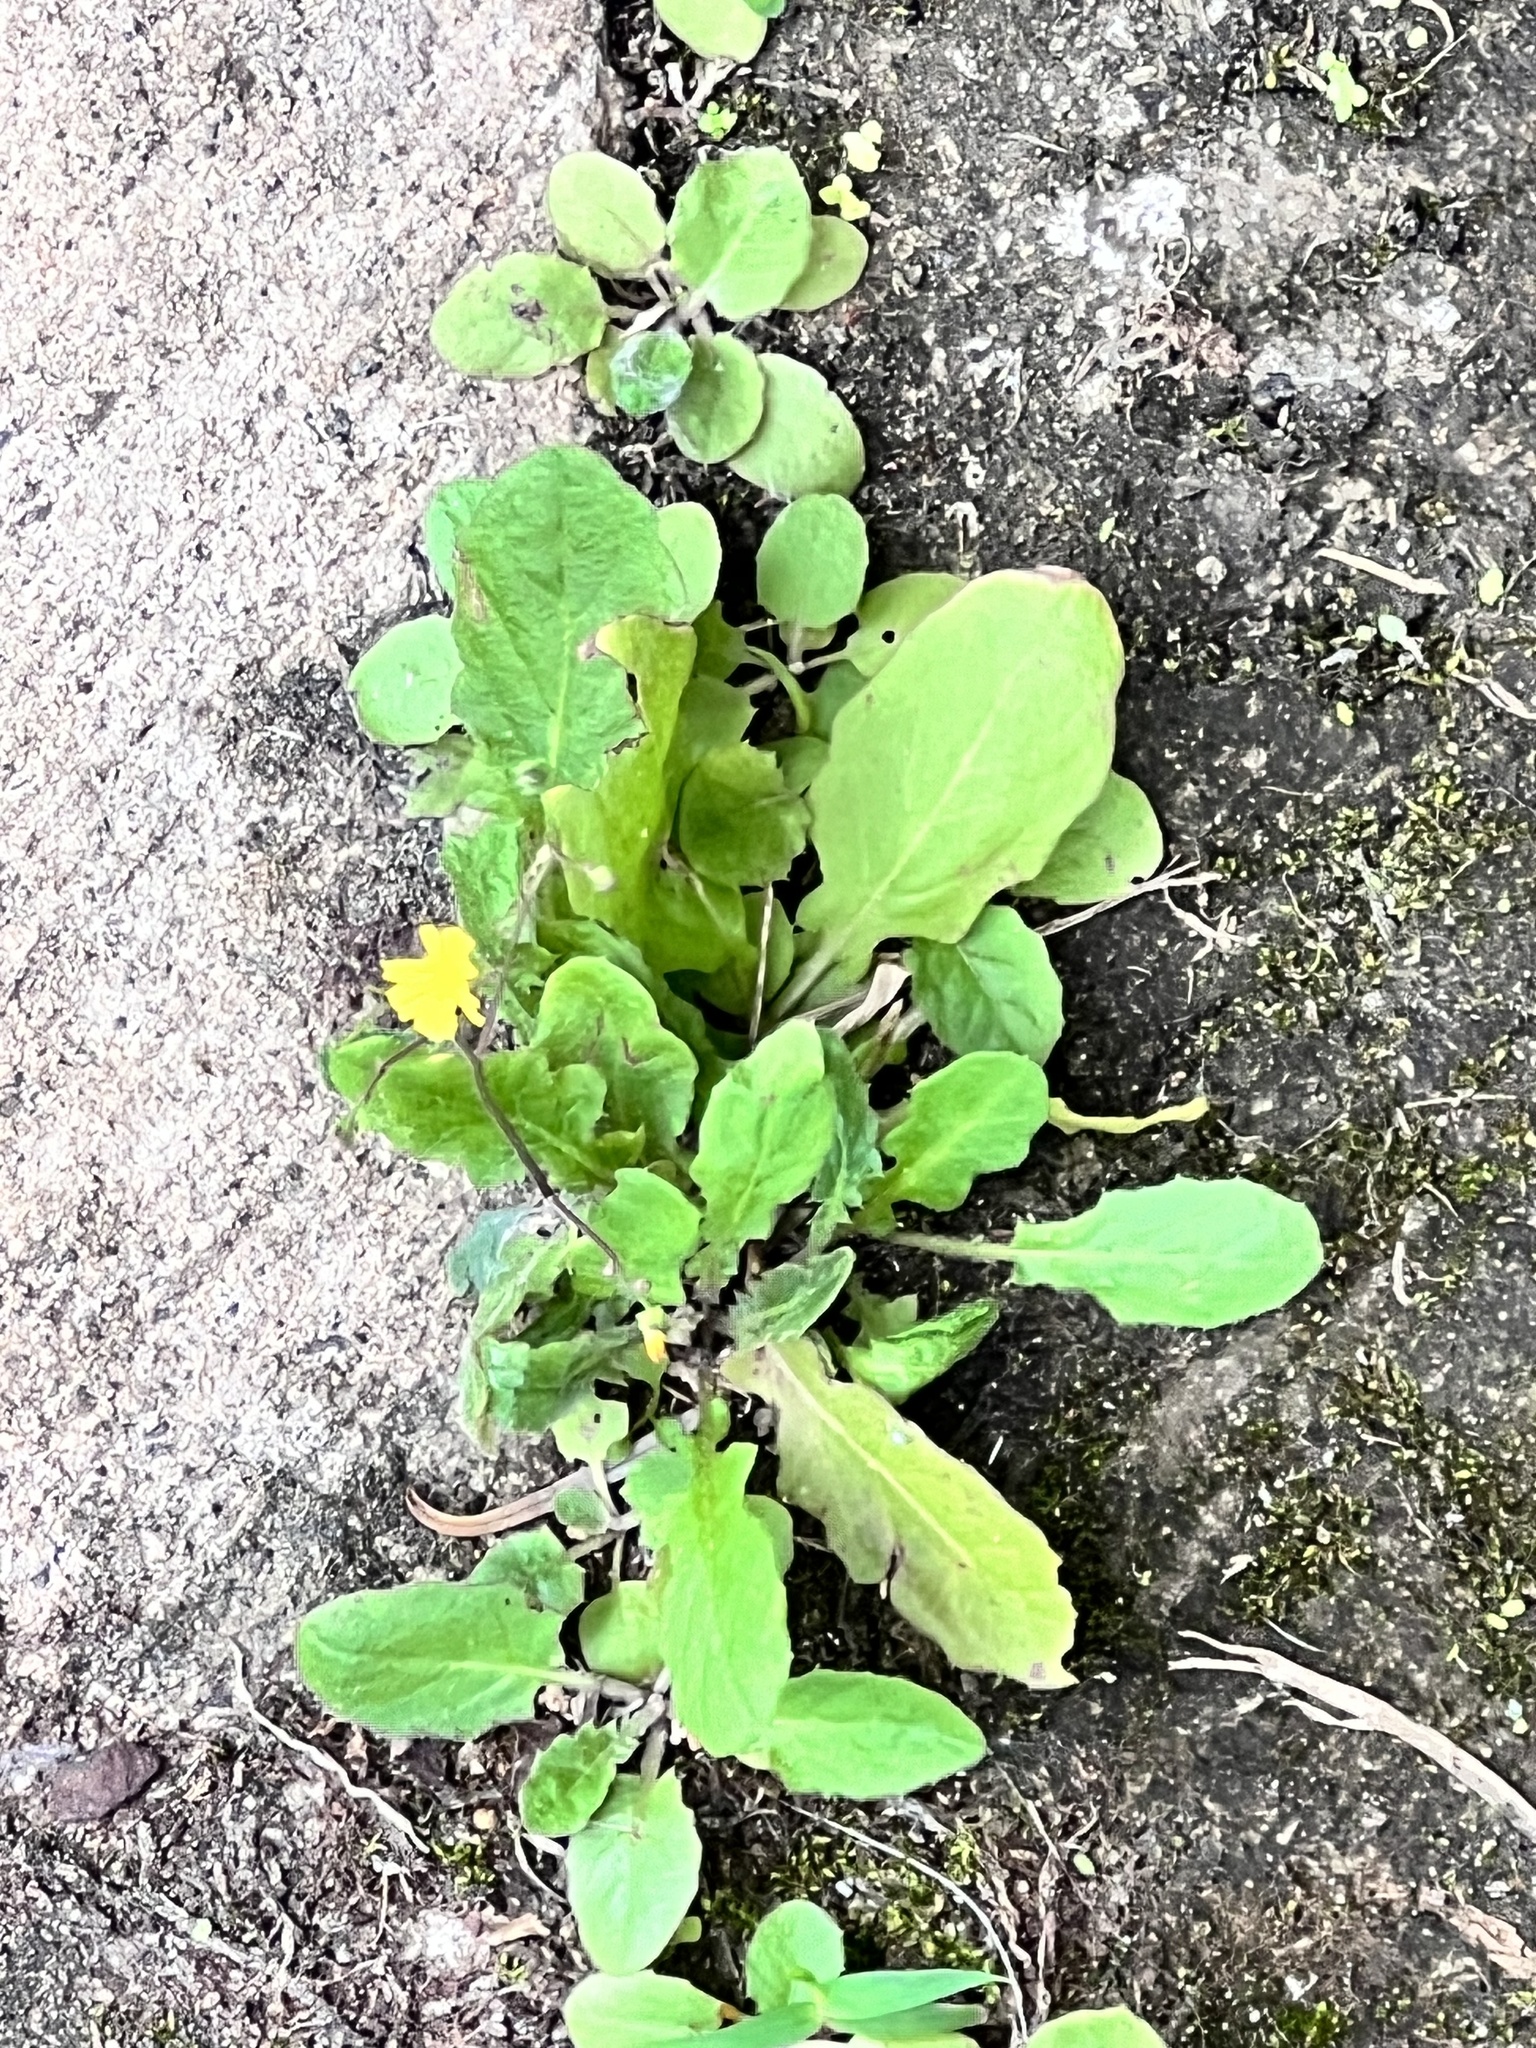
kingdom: Plantae
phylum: Tracheophyta
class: Magnoliopsida
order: Asterales
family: Asteraceae
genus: Youngia
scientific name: Youngia japonica
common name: Oriental false hawksbeard
